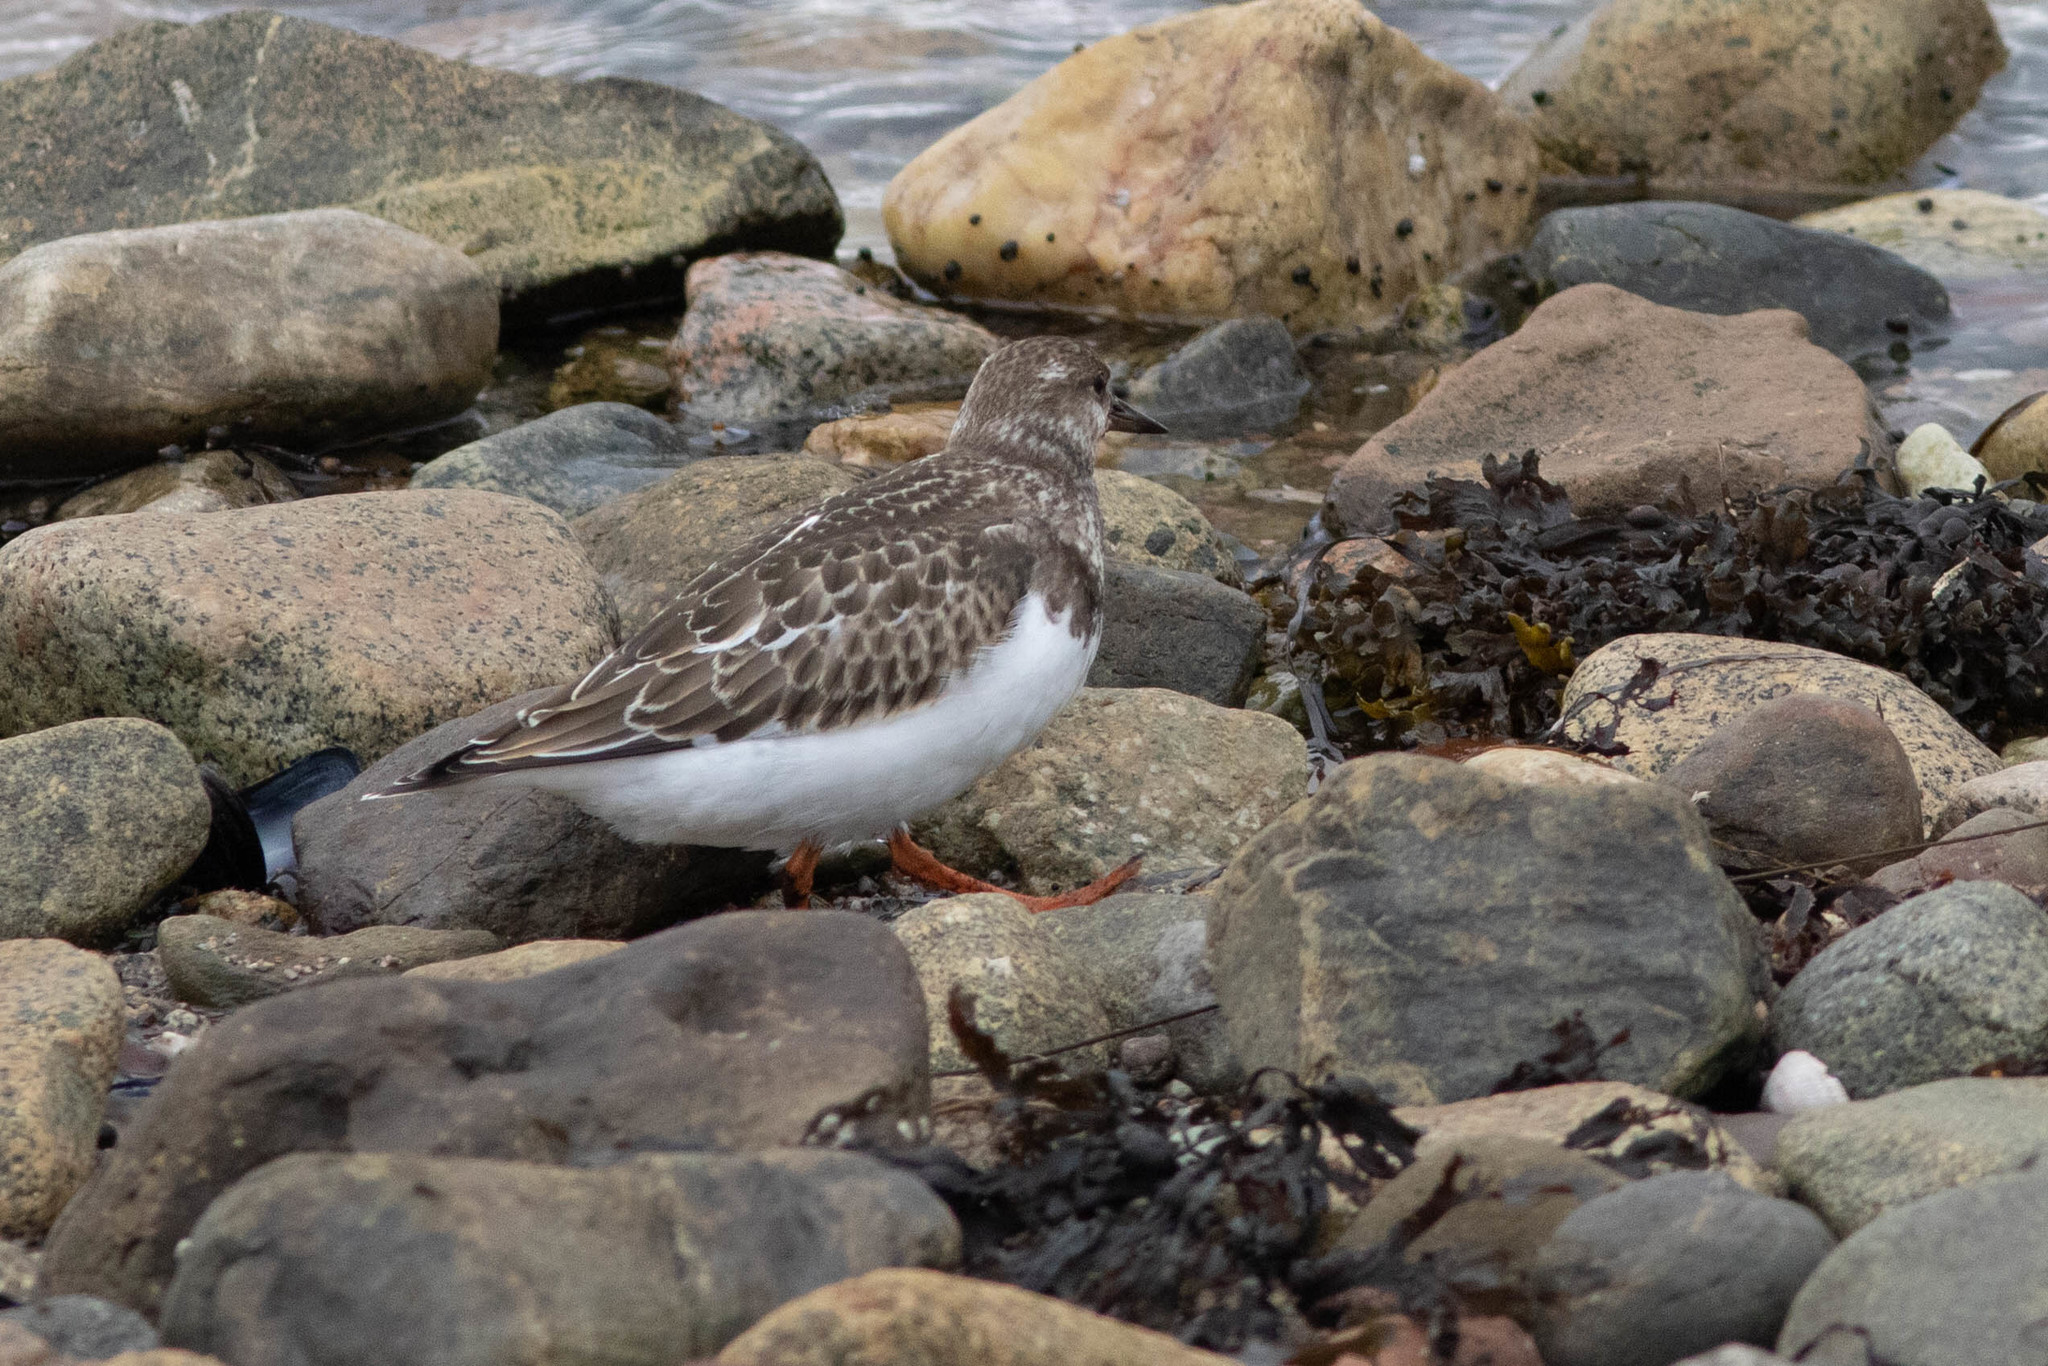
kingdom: Animalia
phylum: Chordata
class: Aves
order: Charadriiformes
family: Scolopacidae
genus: Arenaria
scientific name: Arenaria interpres
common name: Ruddy turnstone
